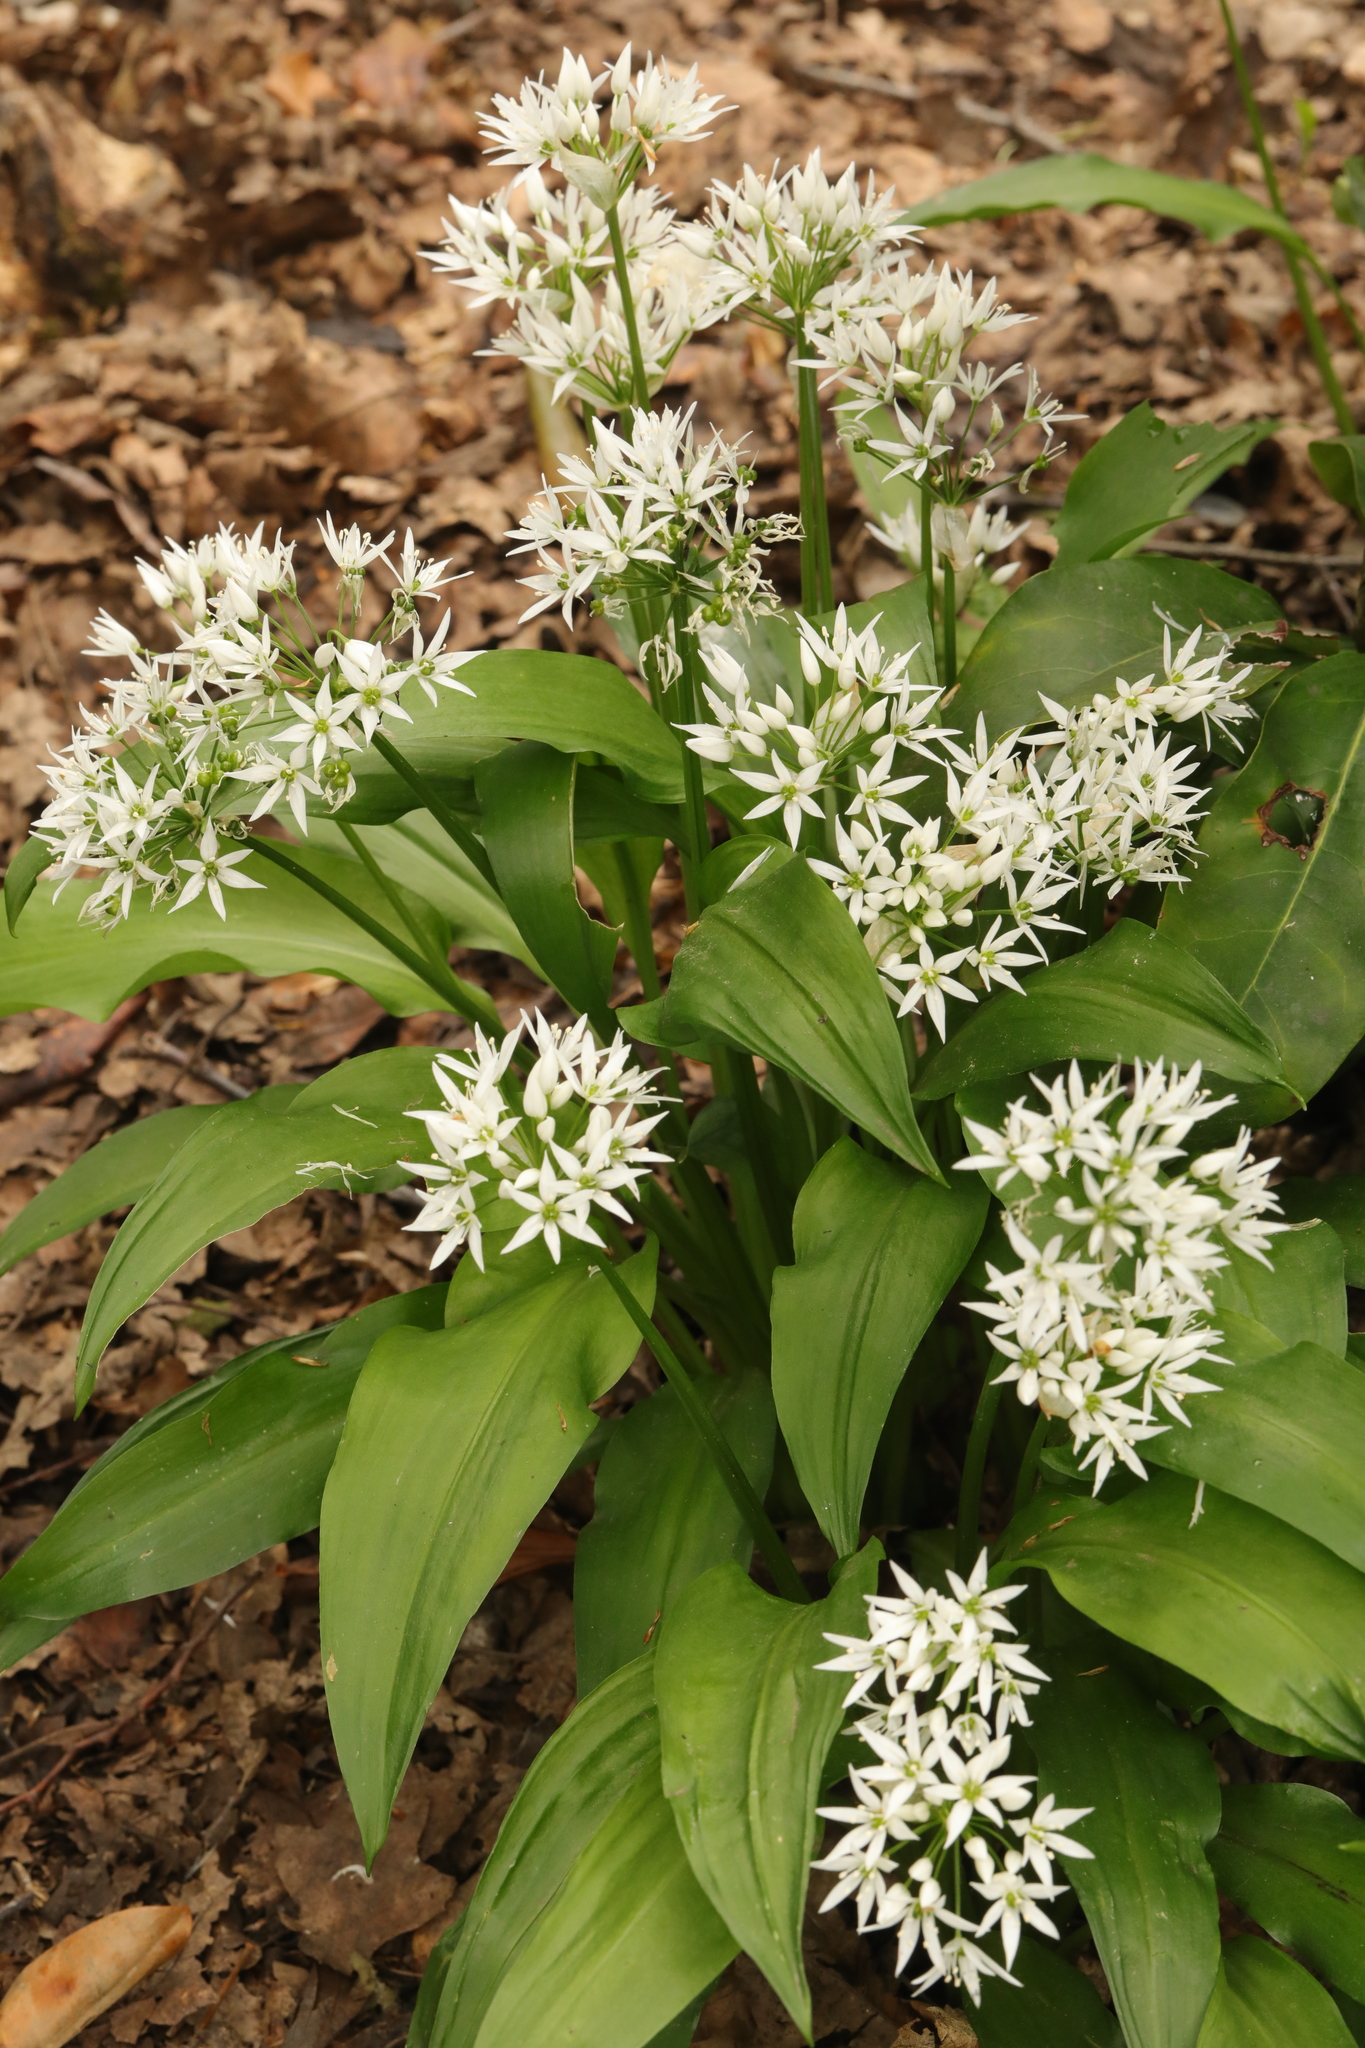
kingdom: Plantae
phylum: Tracheophyta
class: Liliopsida
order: Asparagales
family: Amaryllidaceae
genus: Allium
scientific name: Allium ursinum
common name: Ramsons
